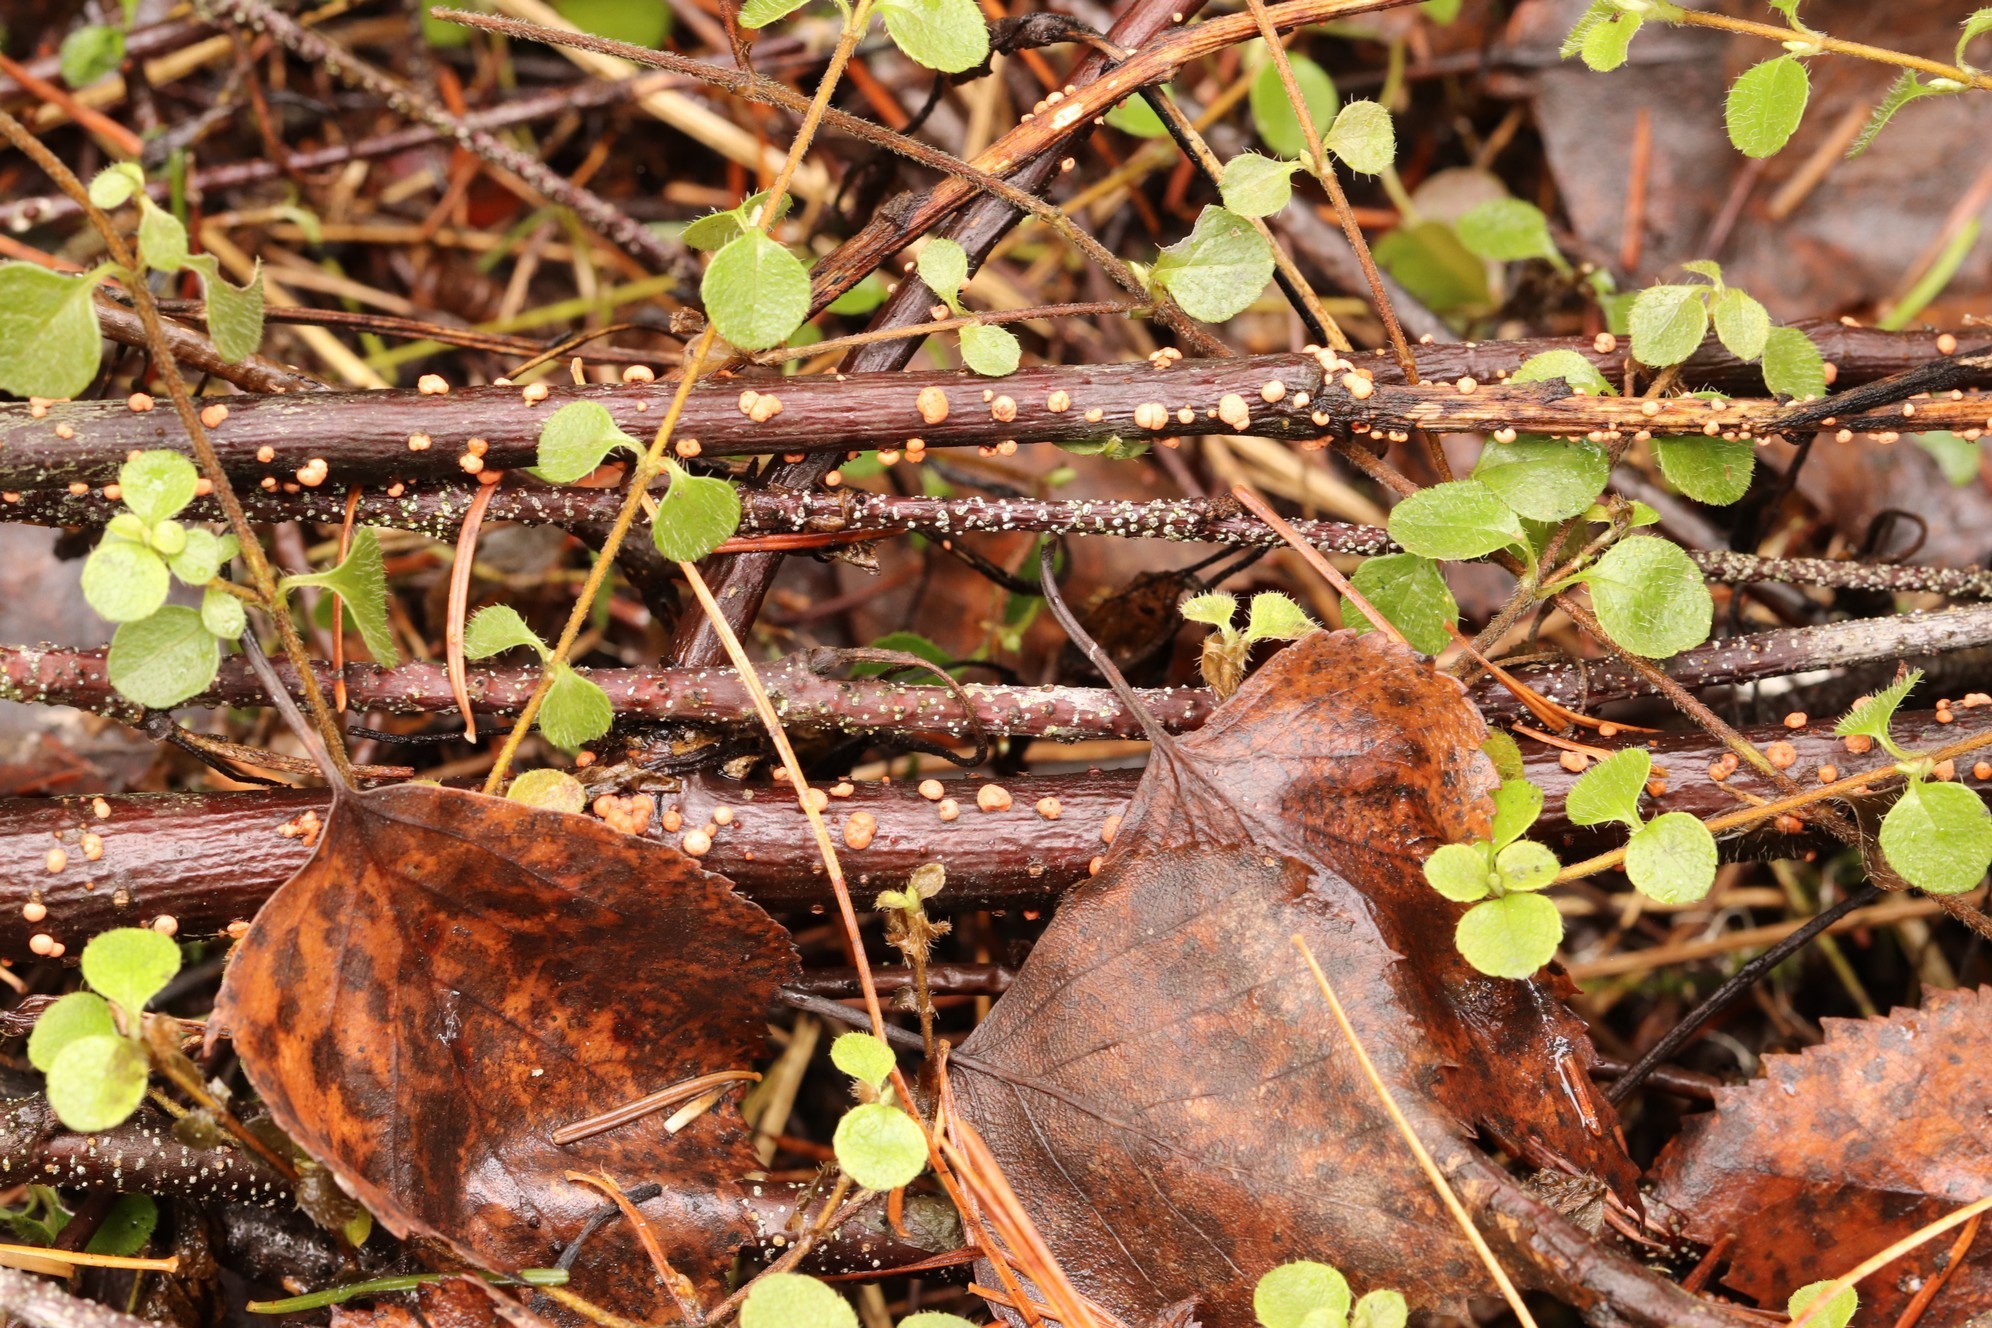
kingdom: Fungi
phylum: Ascomycota
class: Sordariomycetes
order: Hypocreales
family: Nectriaceae
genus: Nectria
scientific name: Nectria cinnabarina
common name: Coral spot
